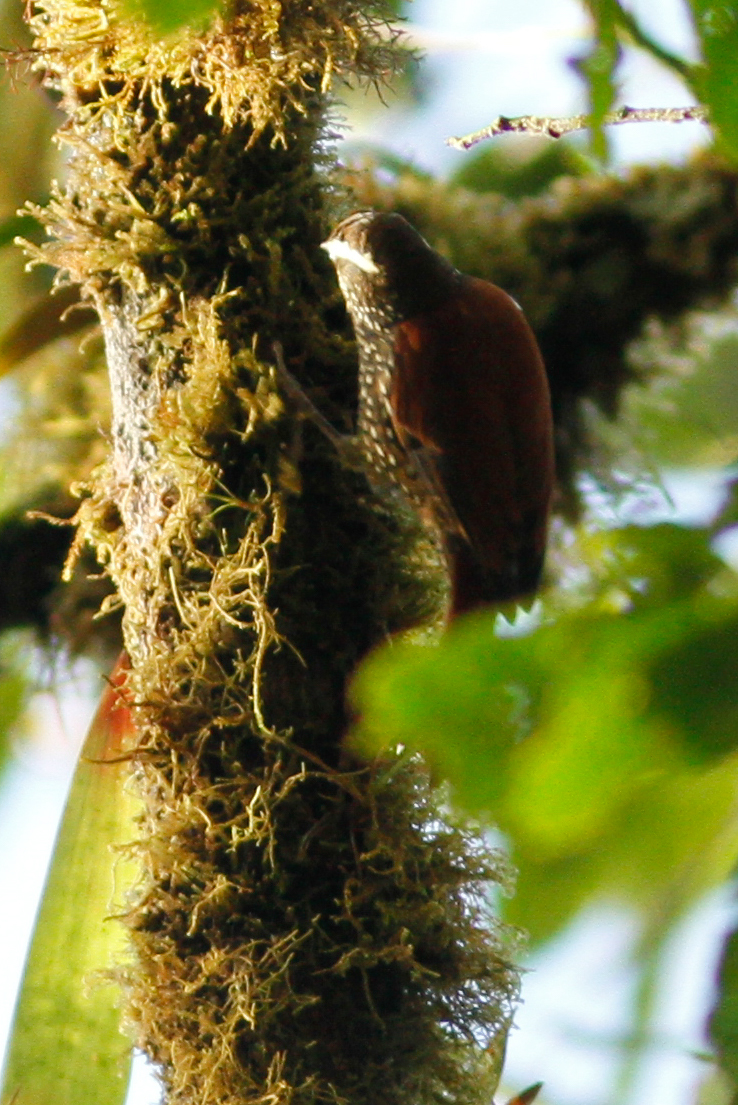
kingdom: Animalia
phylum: Chordata
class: Aves
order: Passeriformes
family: Furnariidae
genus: Margarornis
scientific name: Margarornis squamiger
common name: Pearled treerunner
